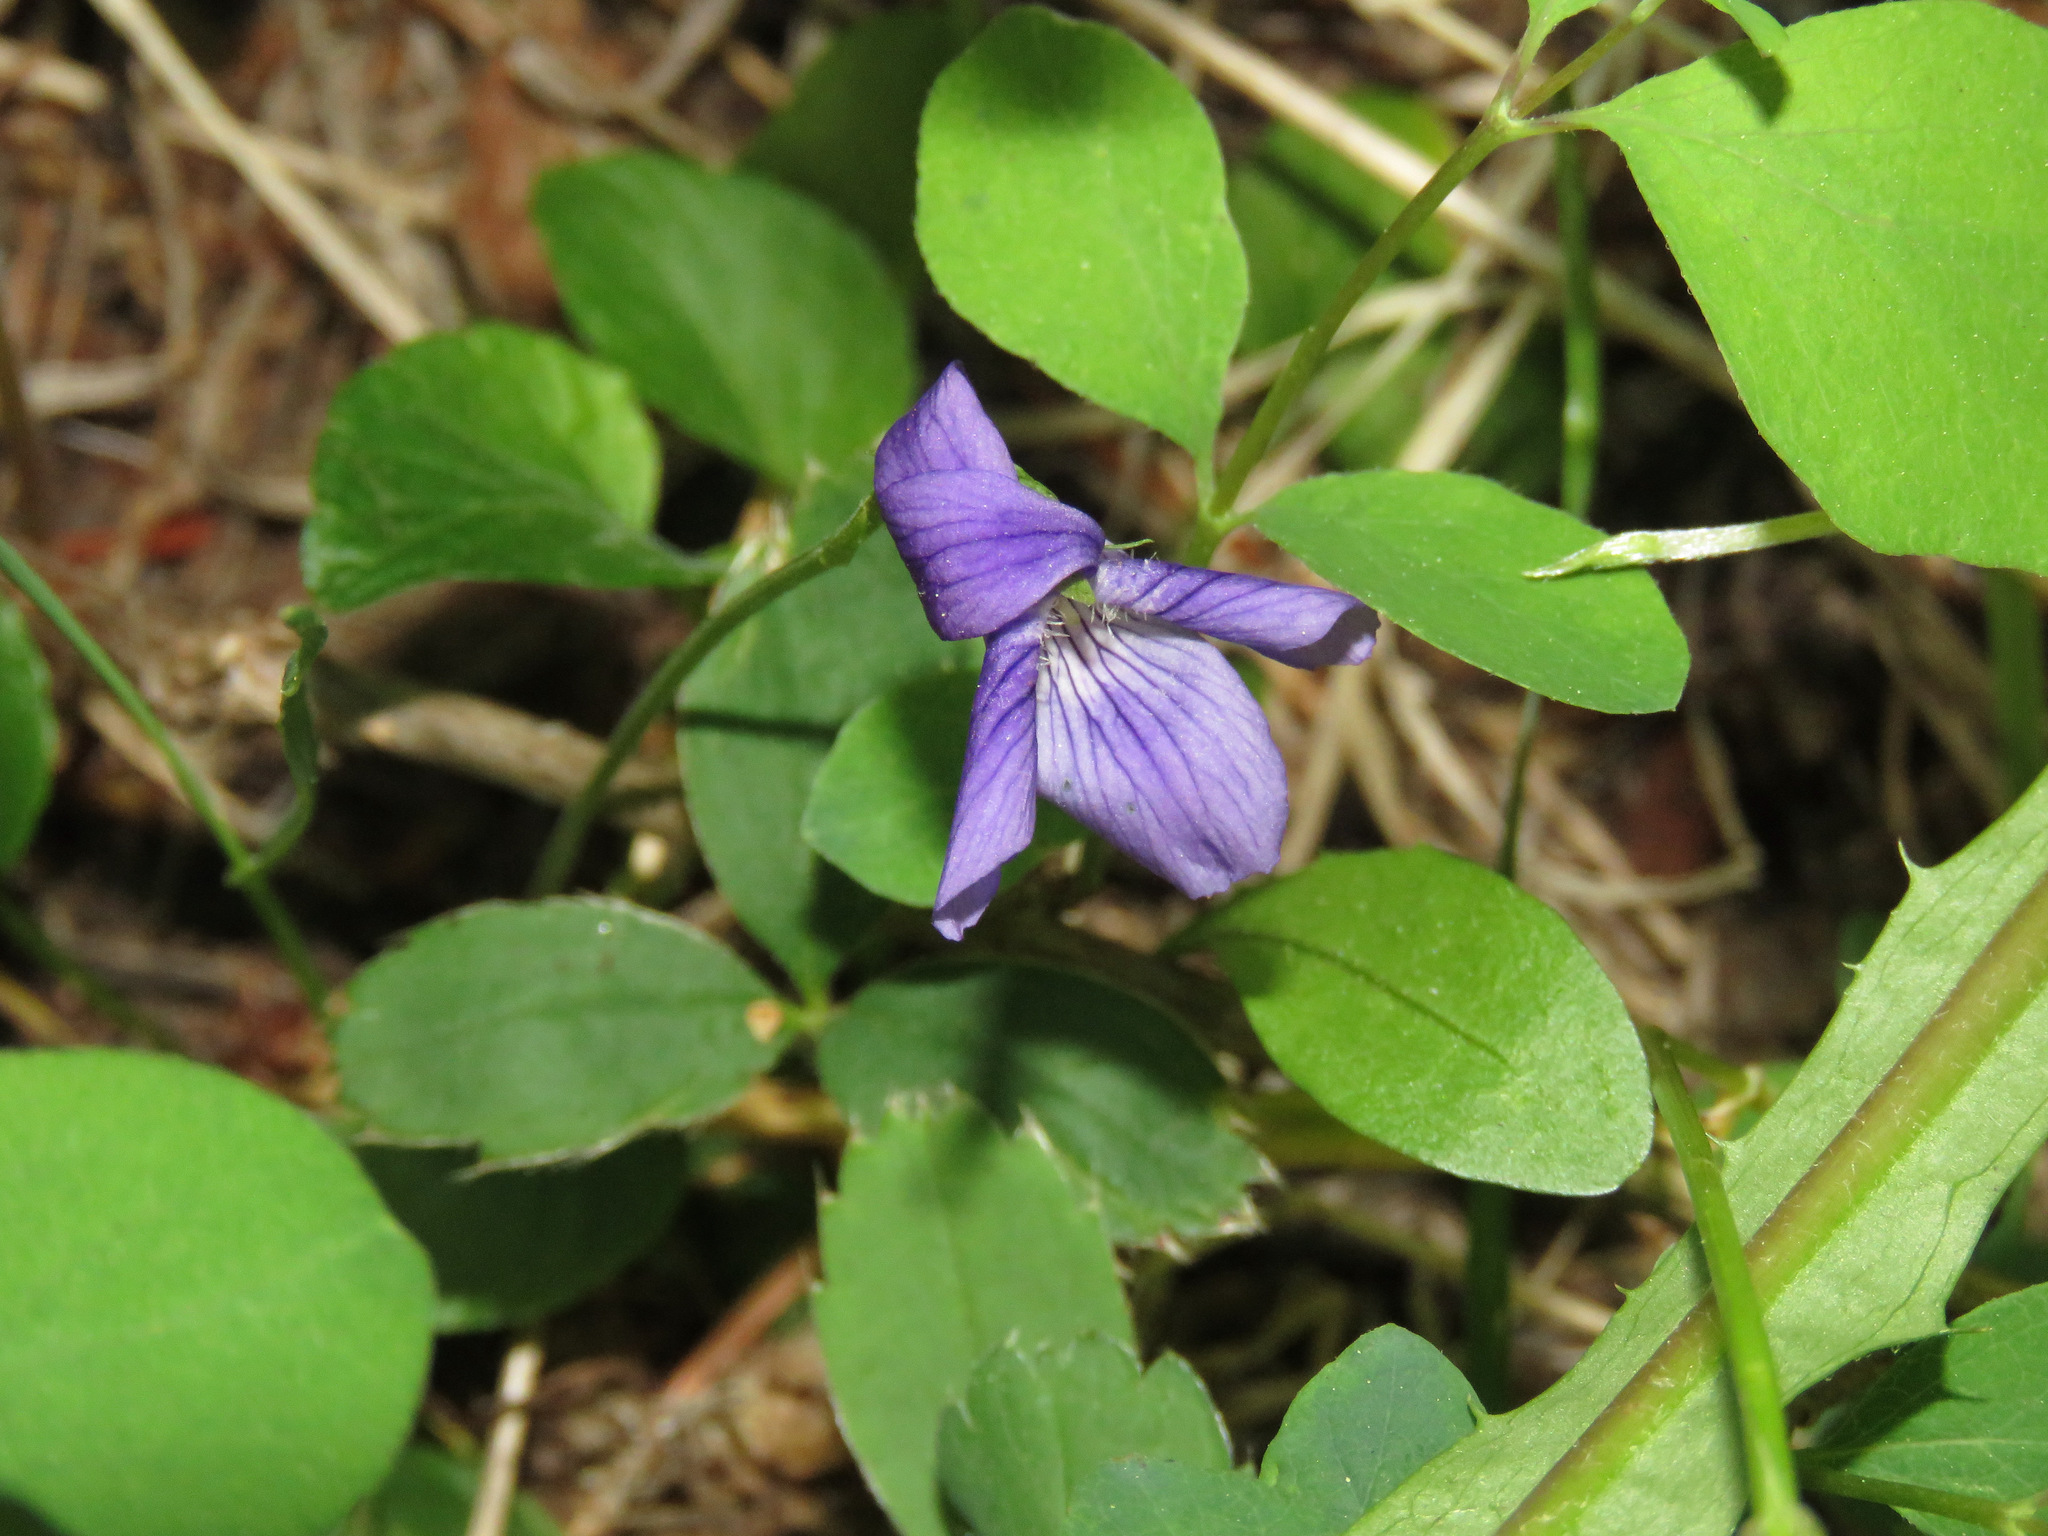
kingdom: Plantae
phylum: Tracheophyta
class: Magnoliopsida
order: Malpighiales
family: Violaceae
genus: Viola
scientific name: Viola adunca
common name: Sand violet
